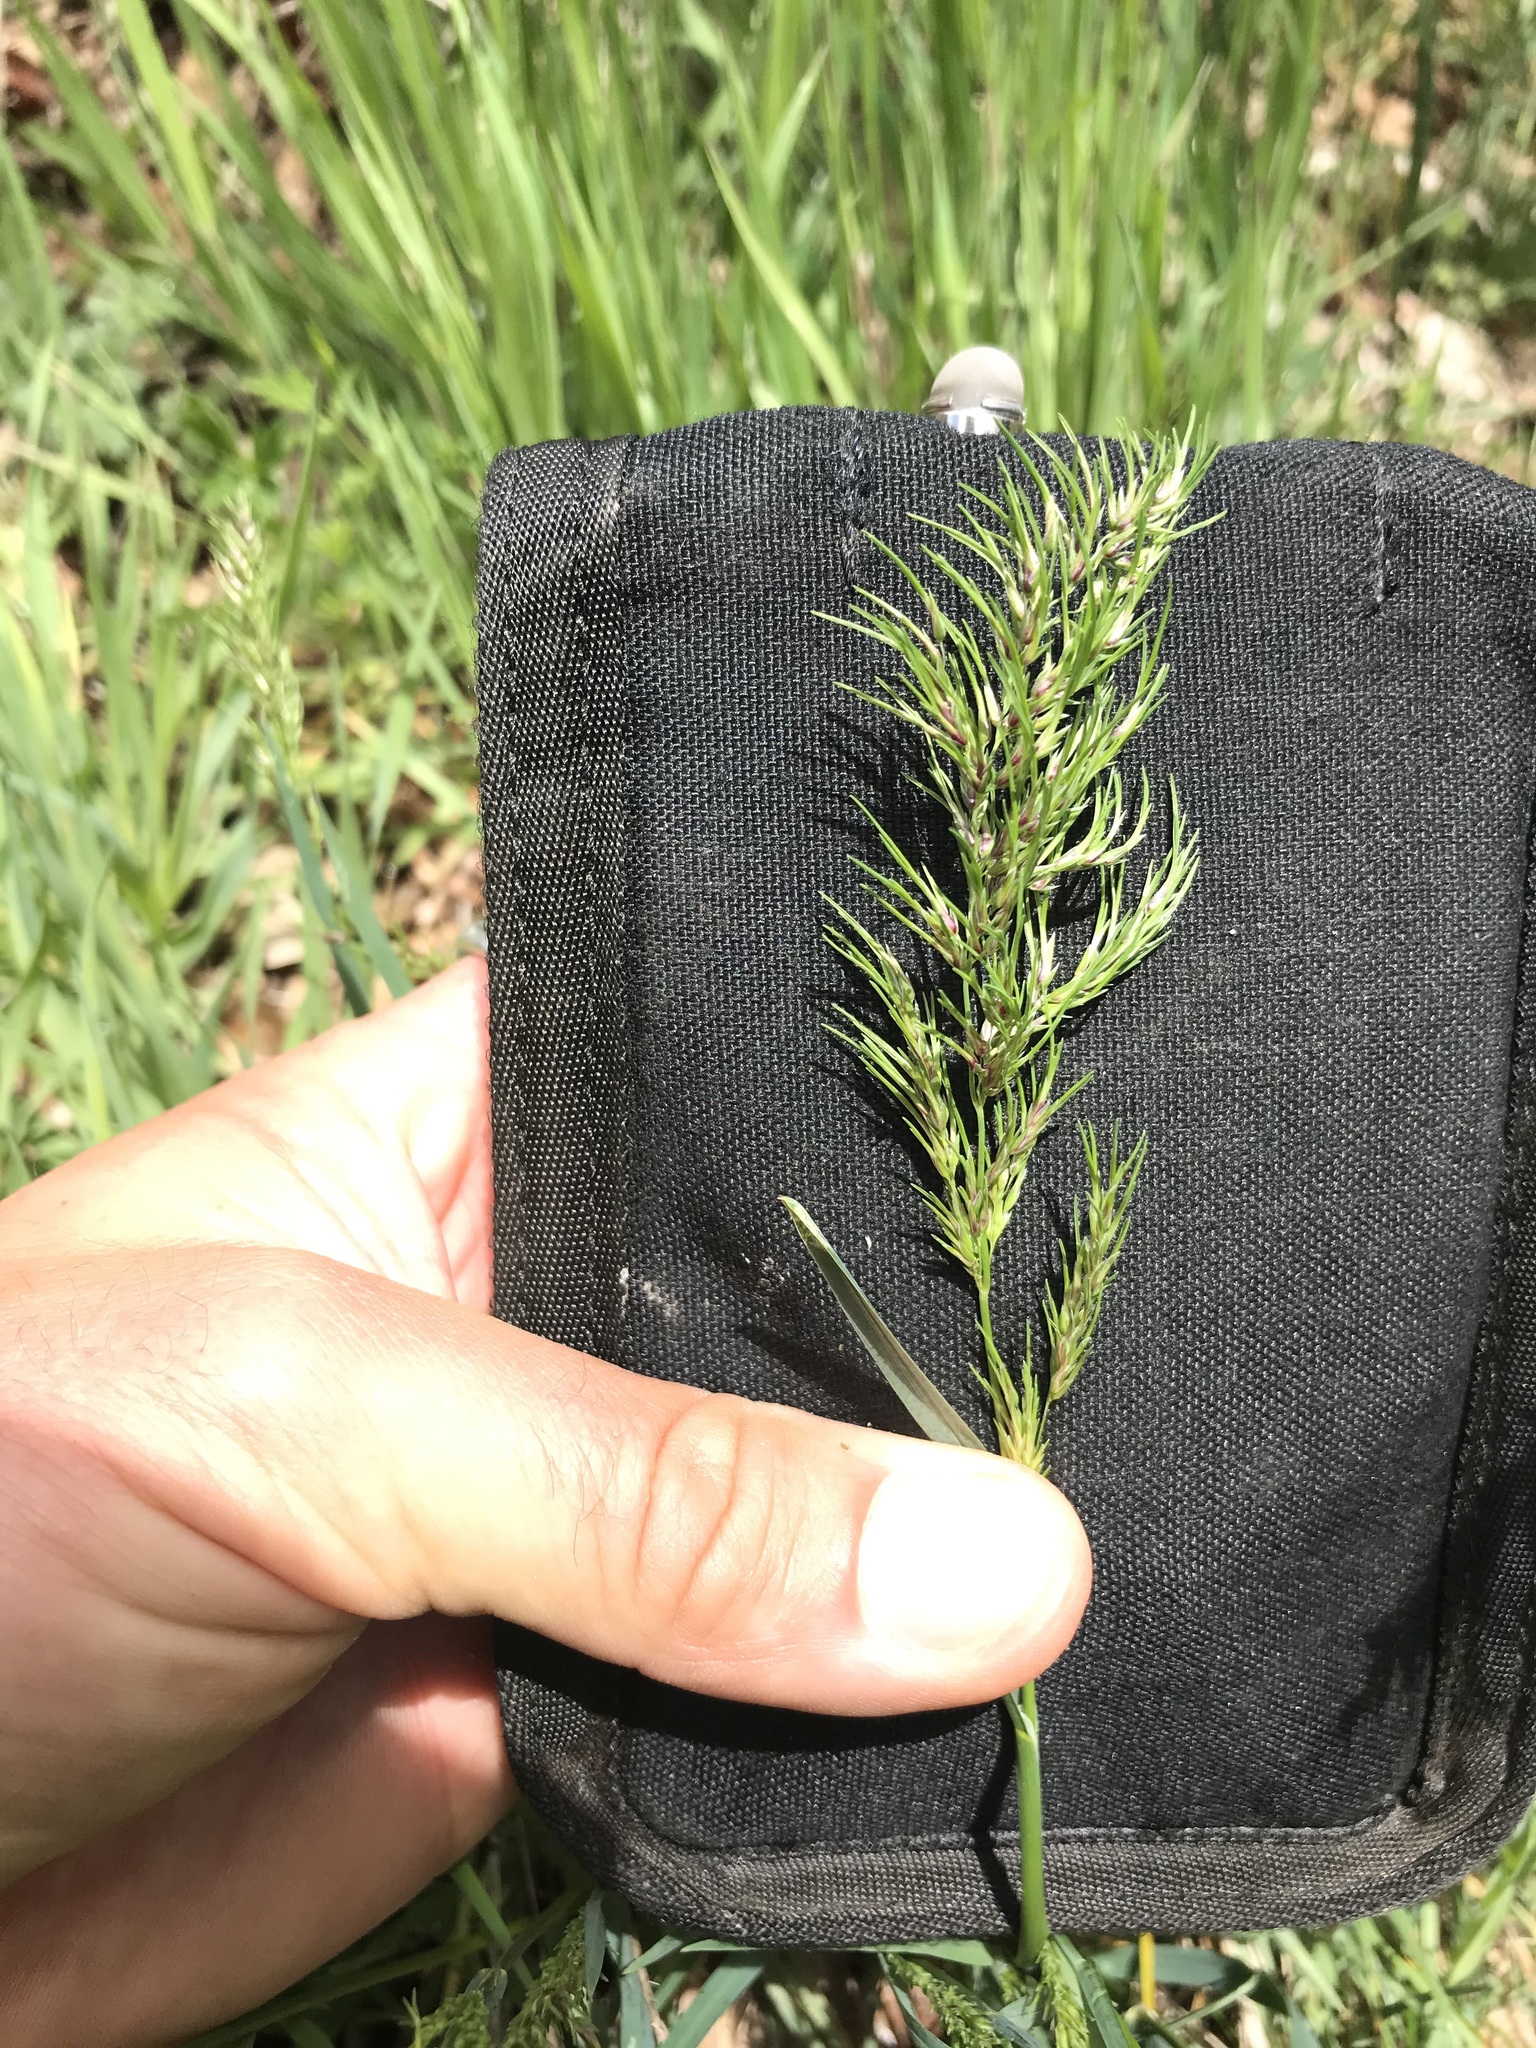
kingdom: Plantae
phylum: Tracheophyta
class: Liliopsida
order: Poales
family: Poaceae
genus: Poa
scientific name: Poa bulbosa
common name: Bulbous bluegrass
